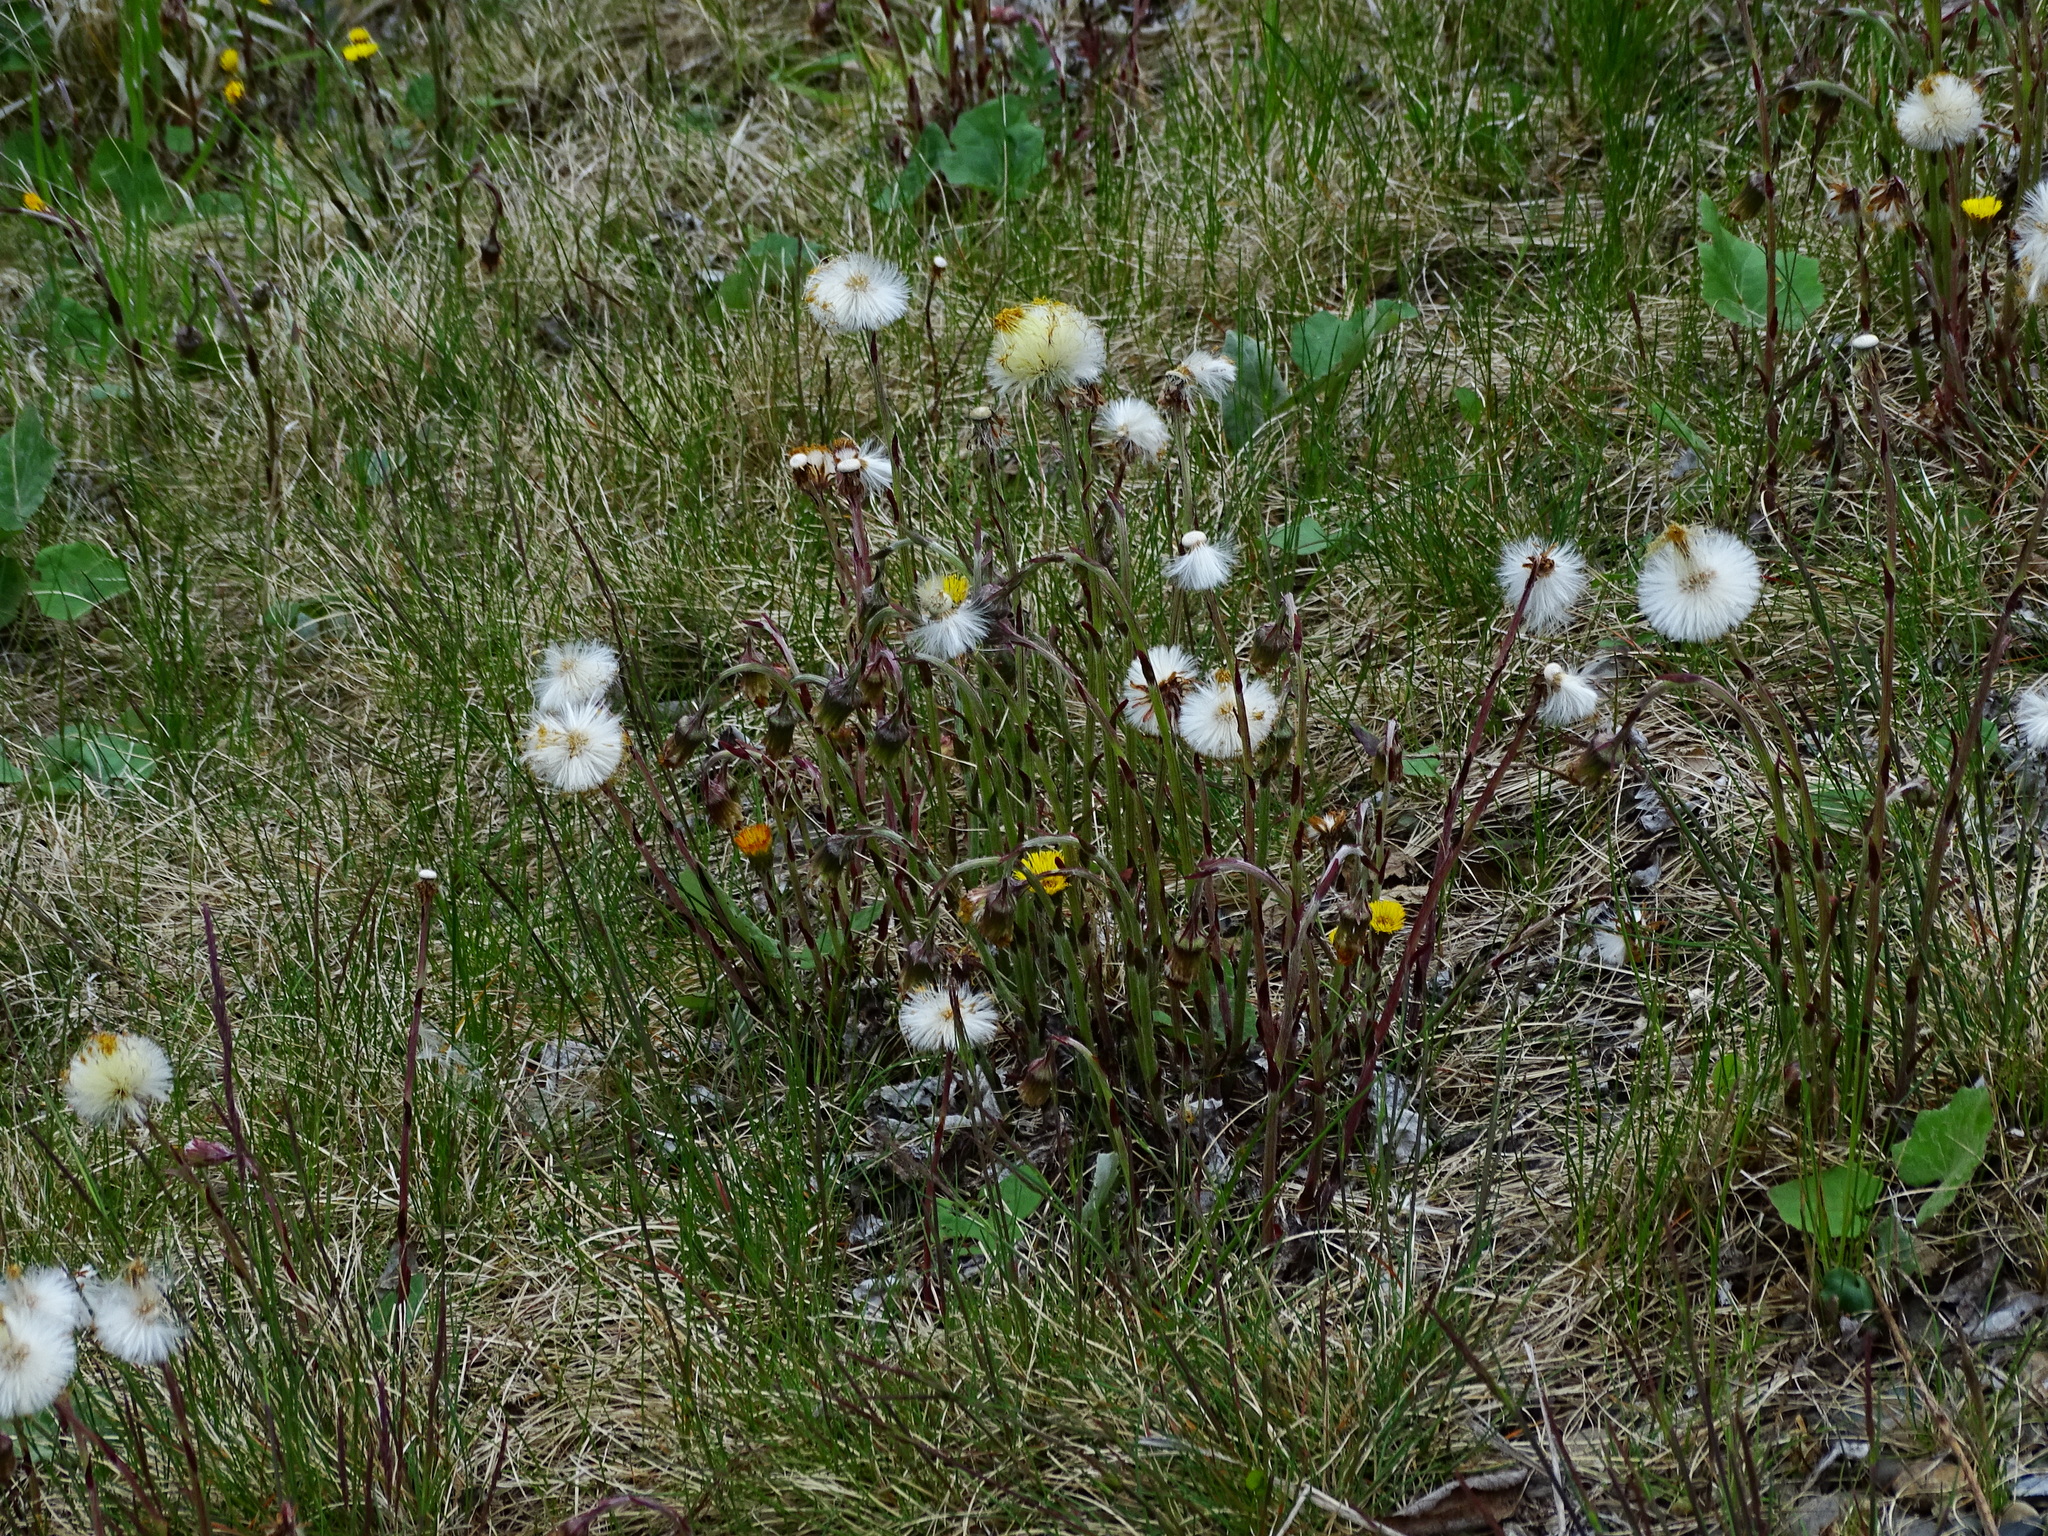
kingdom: Plantae
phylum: Tracheophyta
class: Magnoliopsida
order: Asterales
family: Asteraceae
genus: Tussilago
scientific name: Tussilago farfara
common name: Coltsfoot
